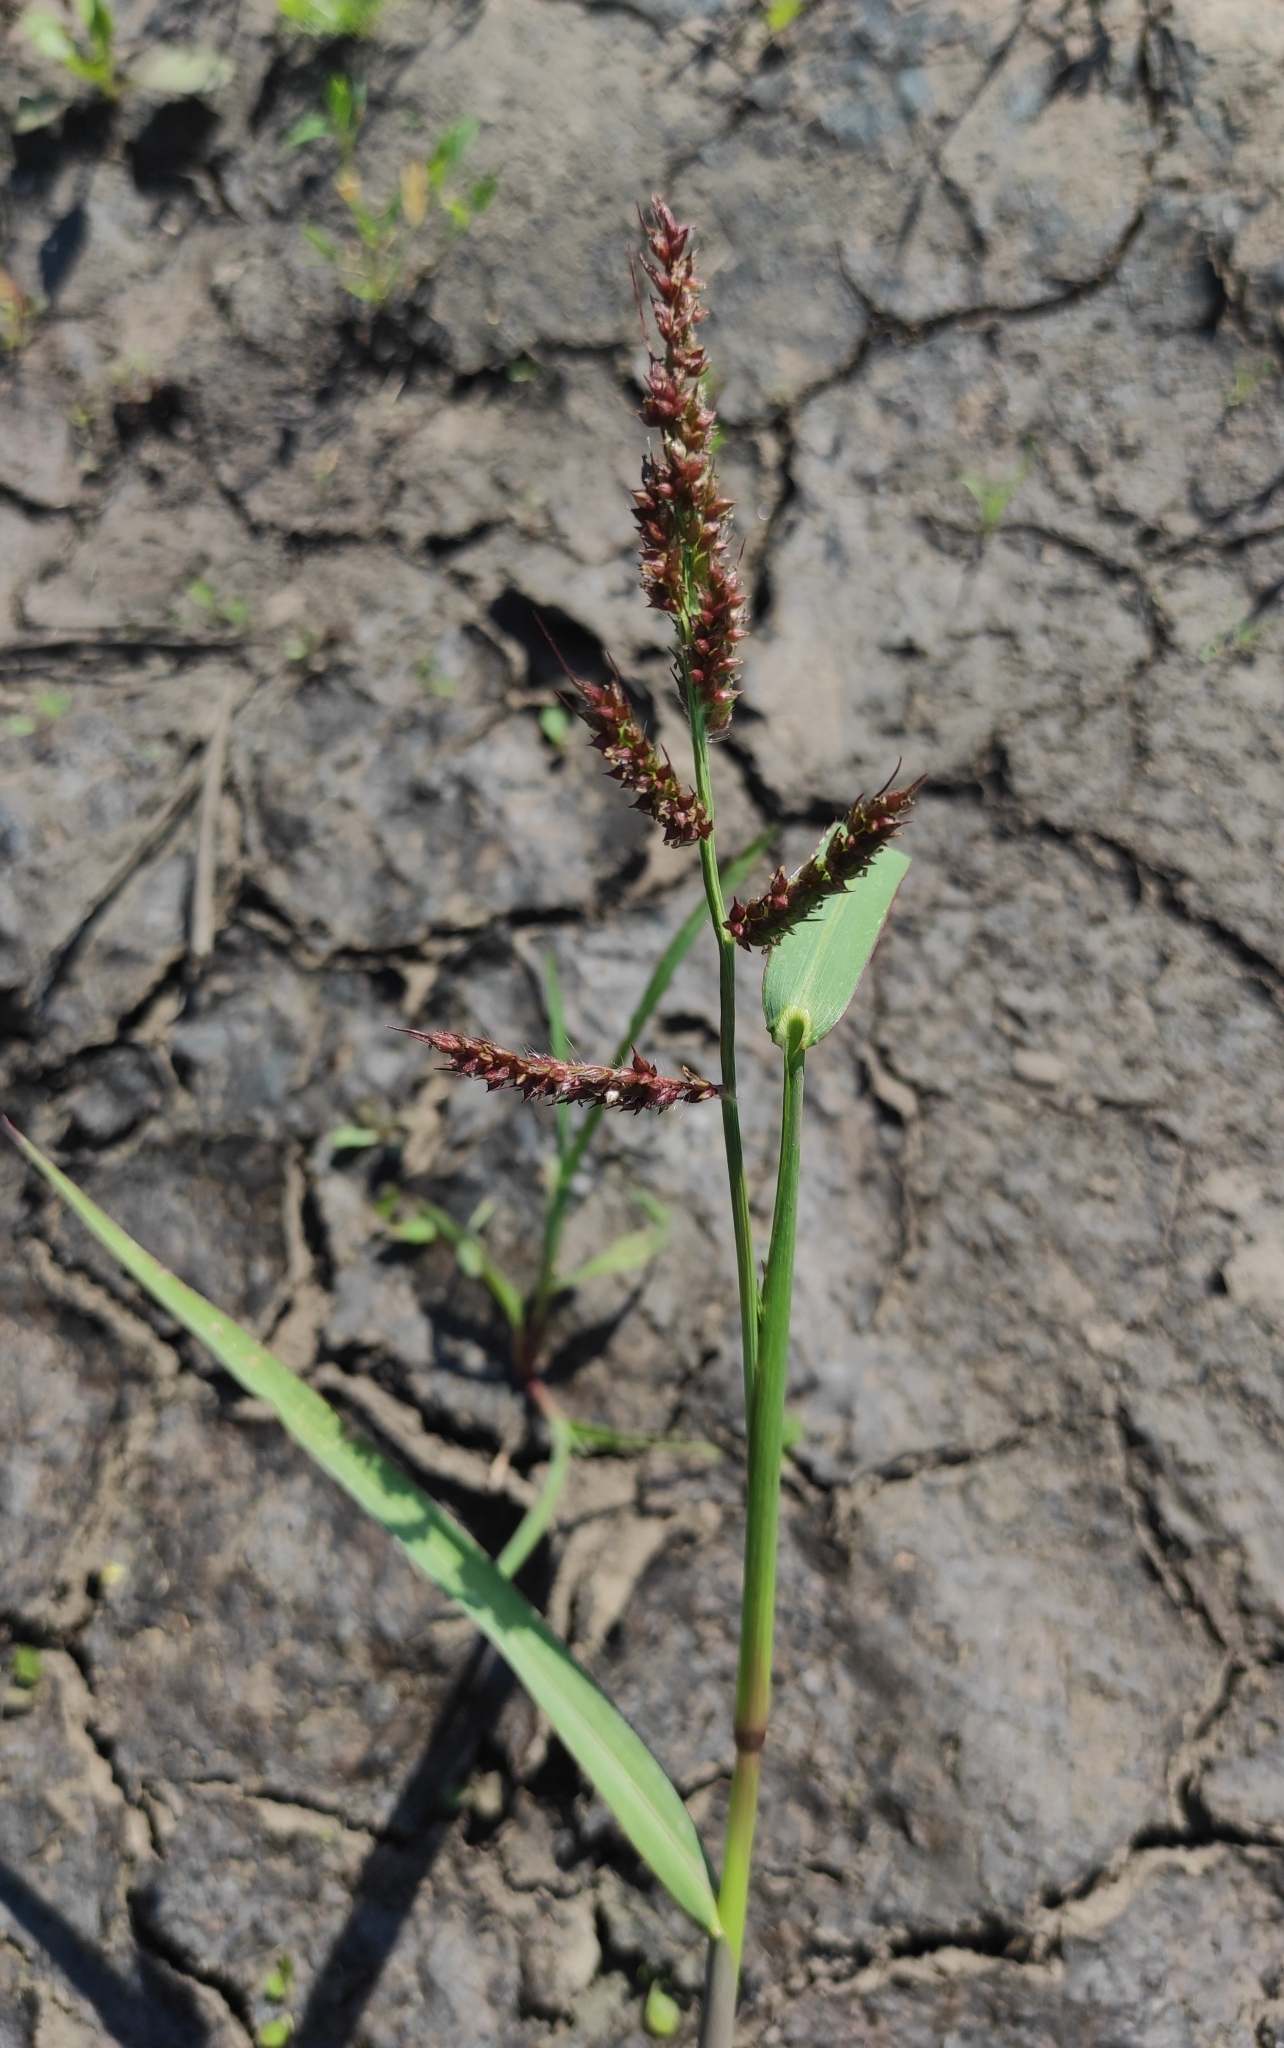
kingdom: Plantae
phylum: Tracheophyta
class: Liliopsida
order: Poales
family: Poaceae
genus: Echinochloa
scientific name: Echinochloa crus-galli
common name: Cockspur
